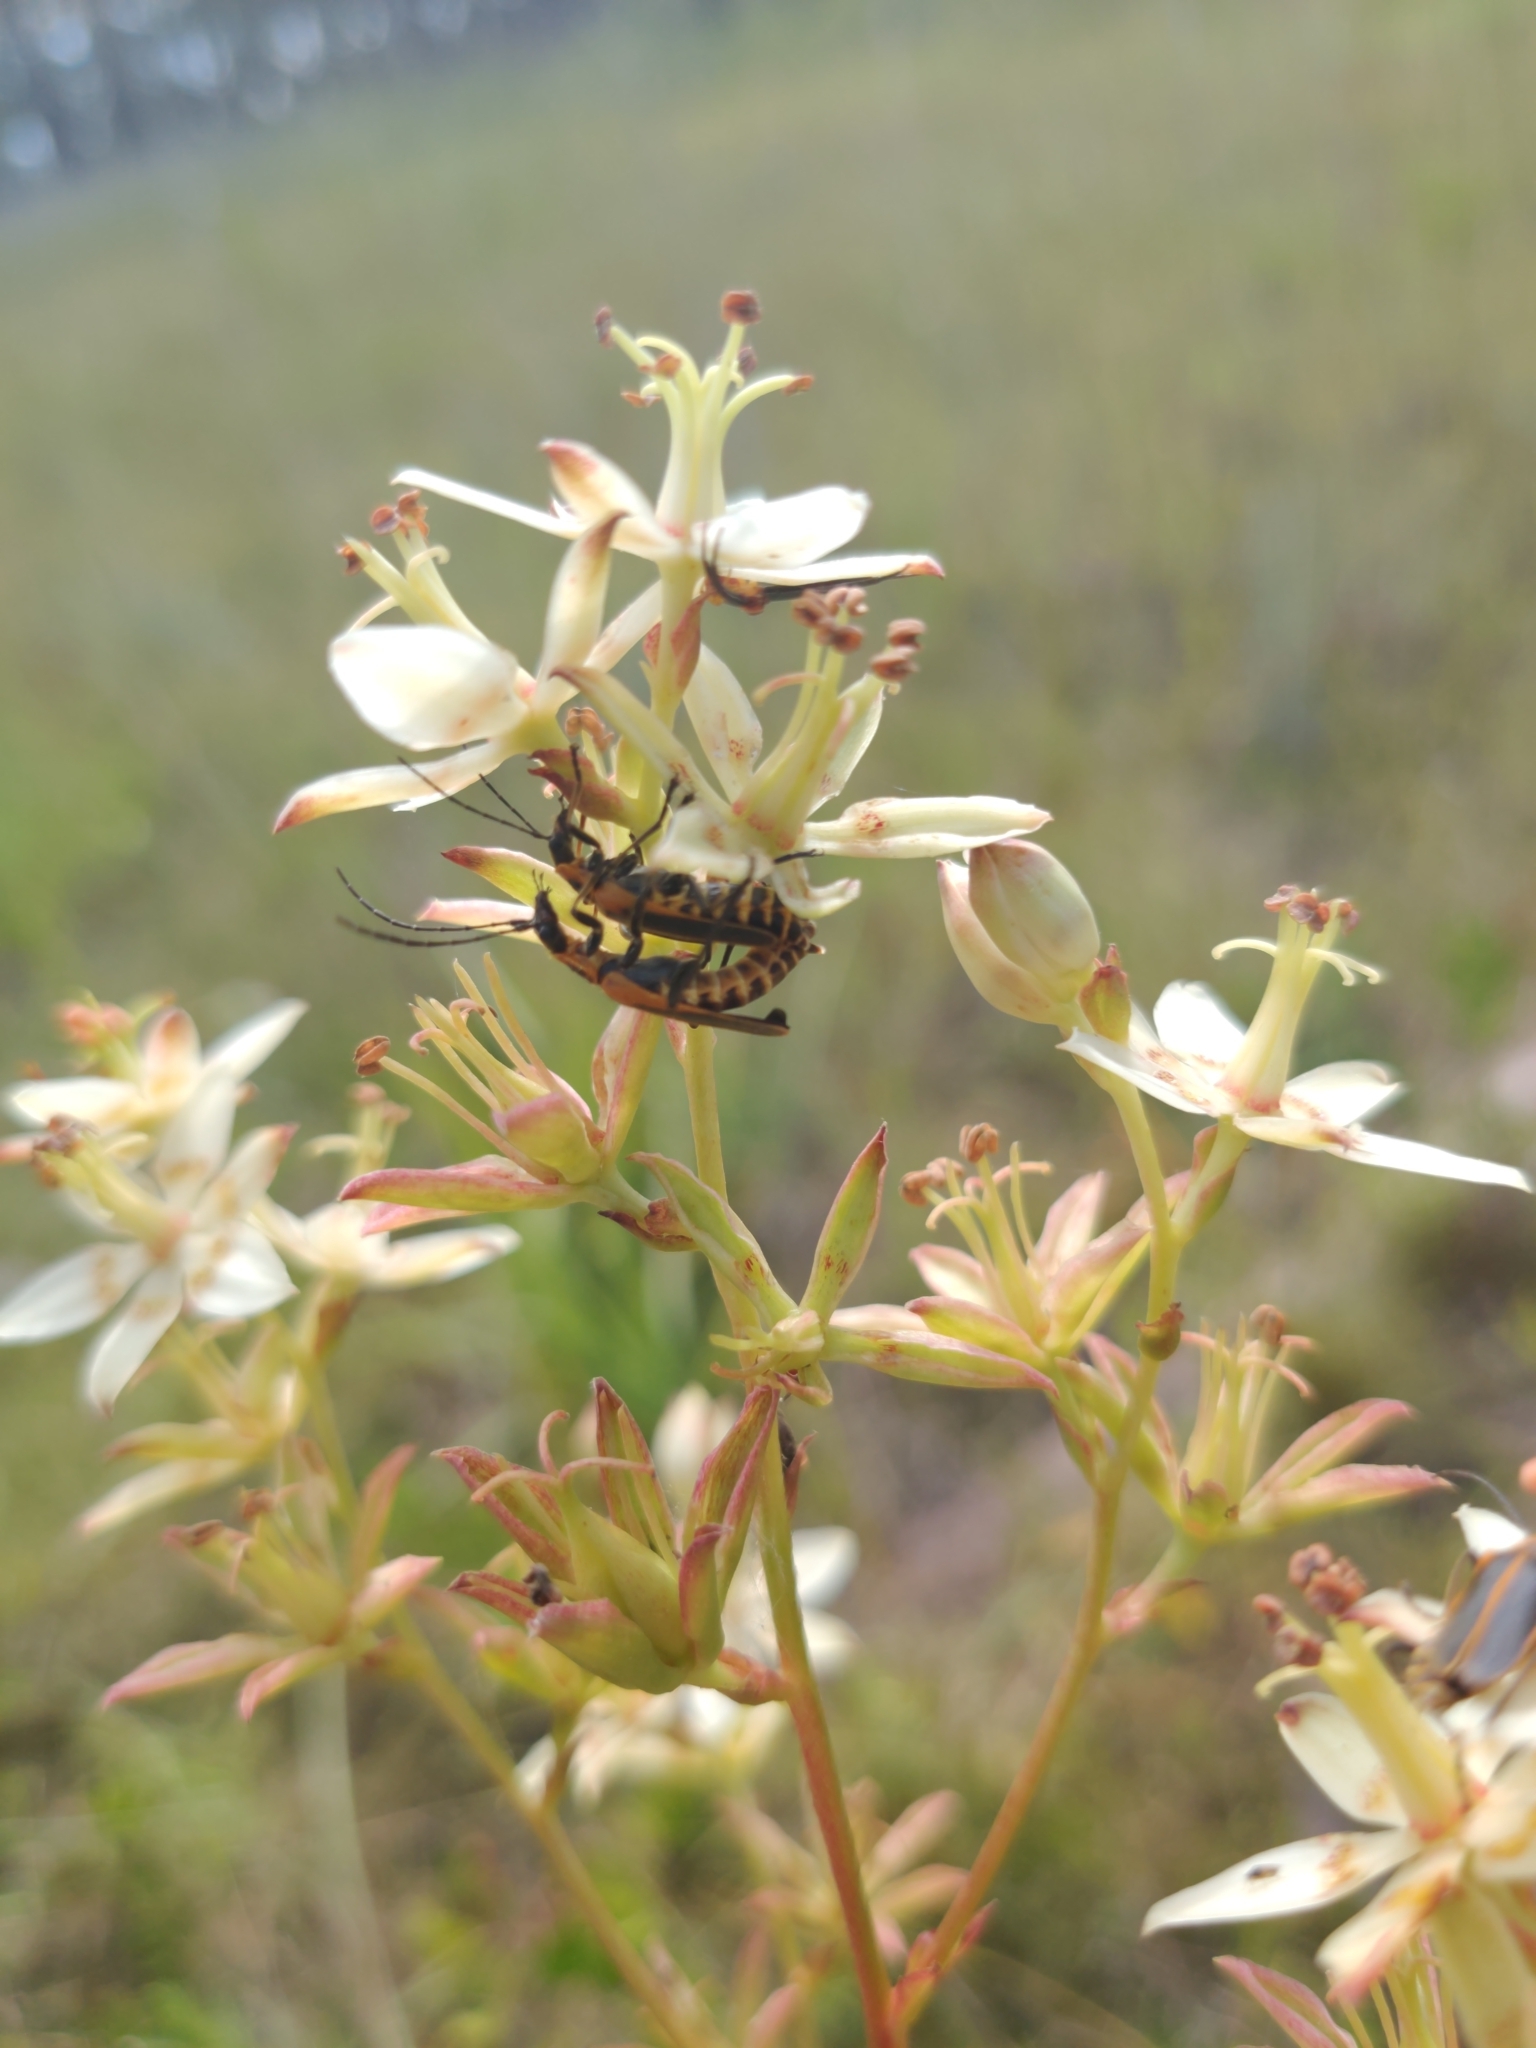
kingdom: Animalia
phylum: Arthropoda
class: Insecta
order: Coleoptera
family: Cantharidae
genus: Chauliognathus
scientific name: Chauliognathus pensylvanicus
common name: Goldenrod soldier beetle
